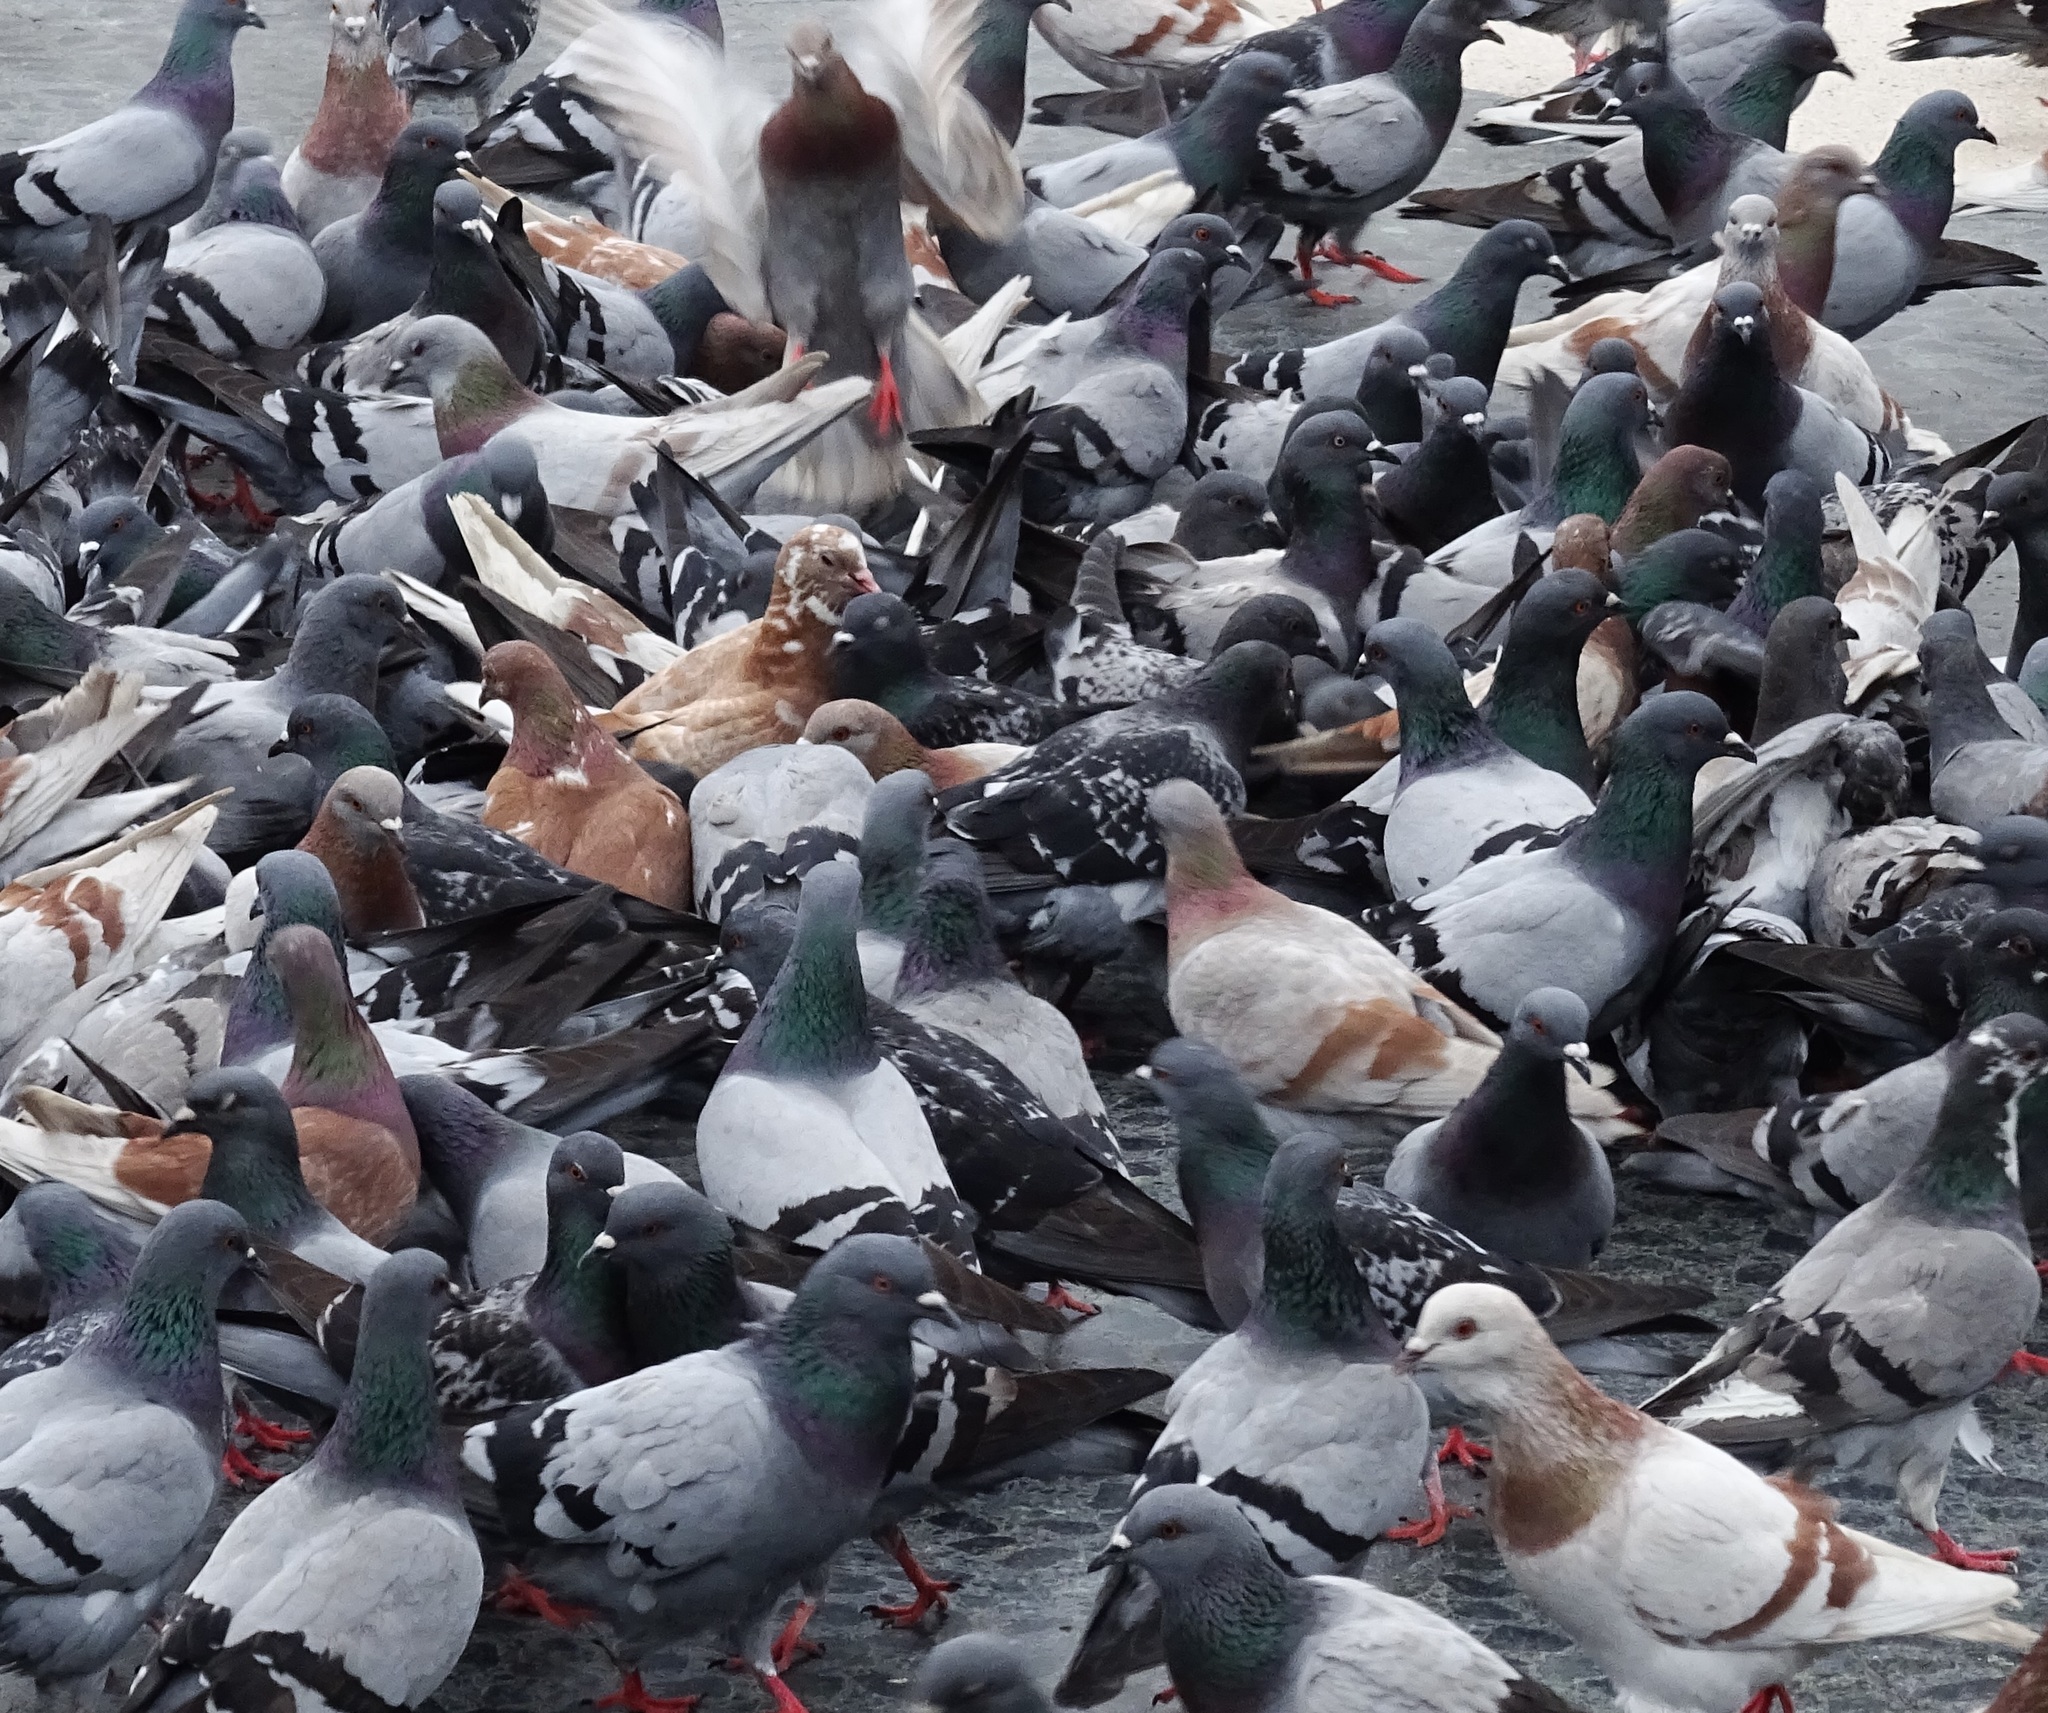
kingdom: Animalia
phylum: Chordata
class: Aves
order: Columbiformes
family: Columbidae
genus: Columba
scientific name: Columba livia
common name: Rock pigeon
